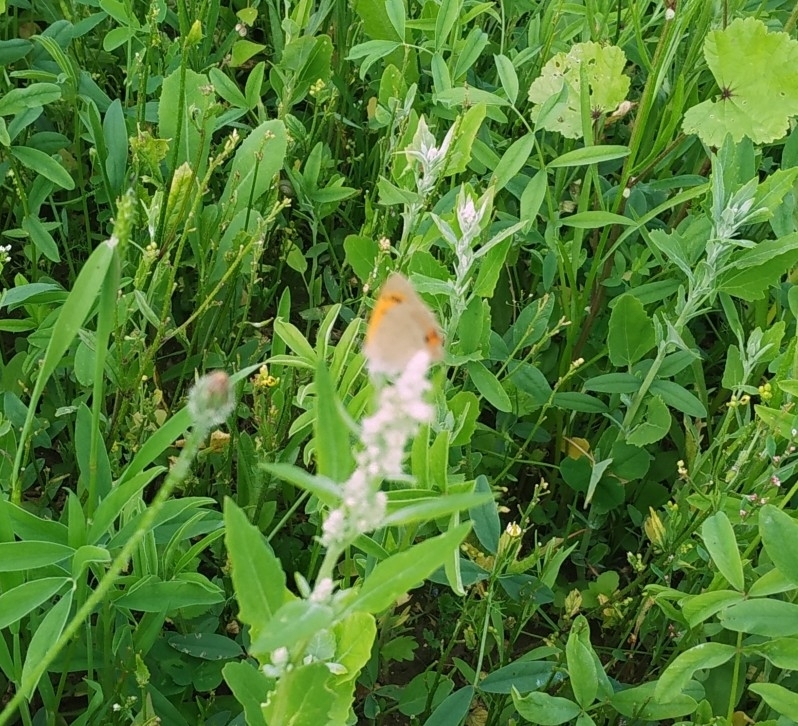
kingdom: Animalia
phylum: Arthropoda
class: Insecta
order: Lepidoptera
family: Lycaenidae
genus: Lycaena
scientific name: Lycaena phlaeas
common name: Small copper
